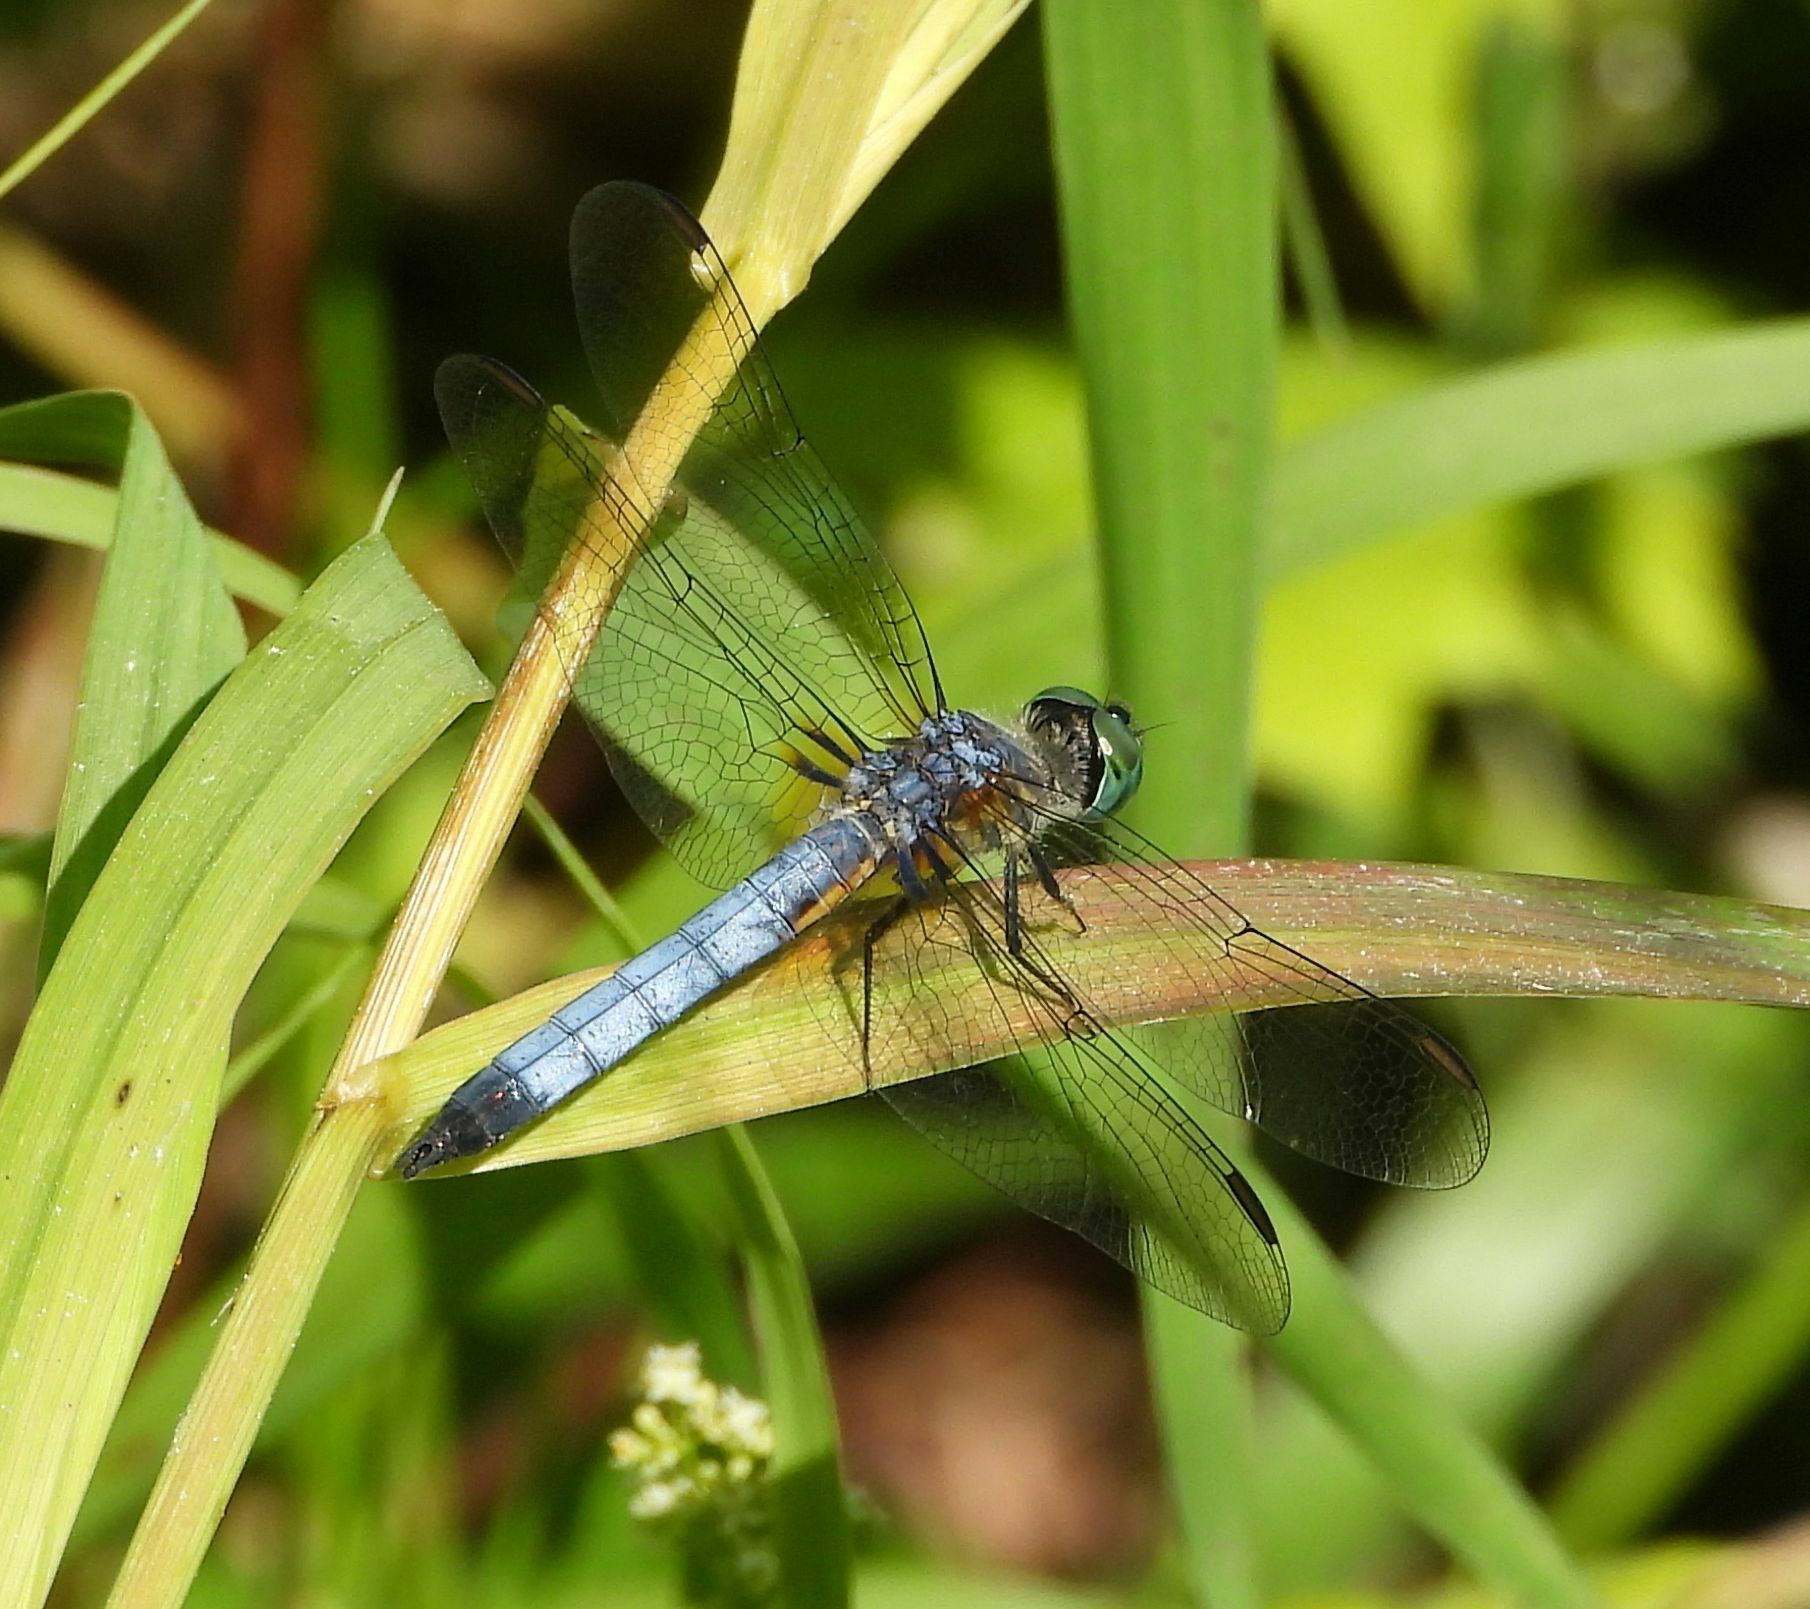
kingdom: Animalia
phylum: Arthropoda
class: Insecta
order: Odonata
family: Libellulidae
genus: Pachydiplax
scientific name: Pachydiplax longipennis
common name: Blue dasher
